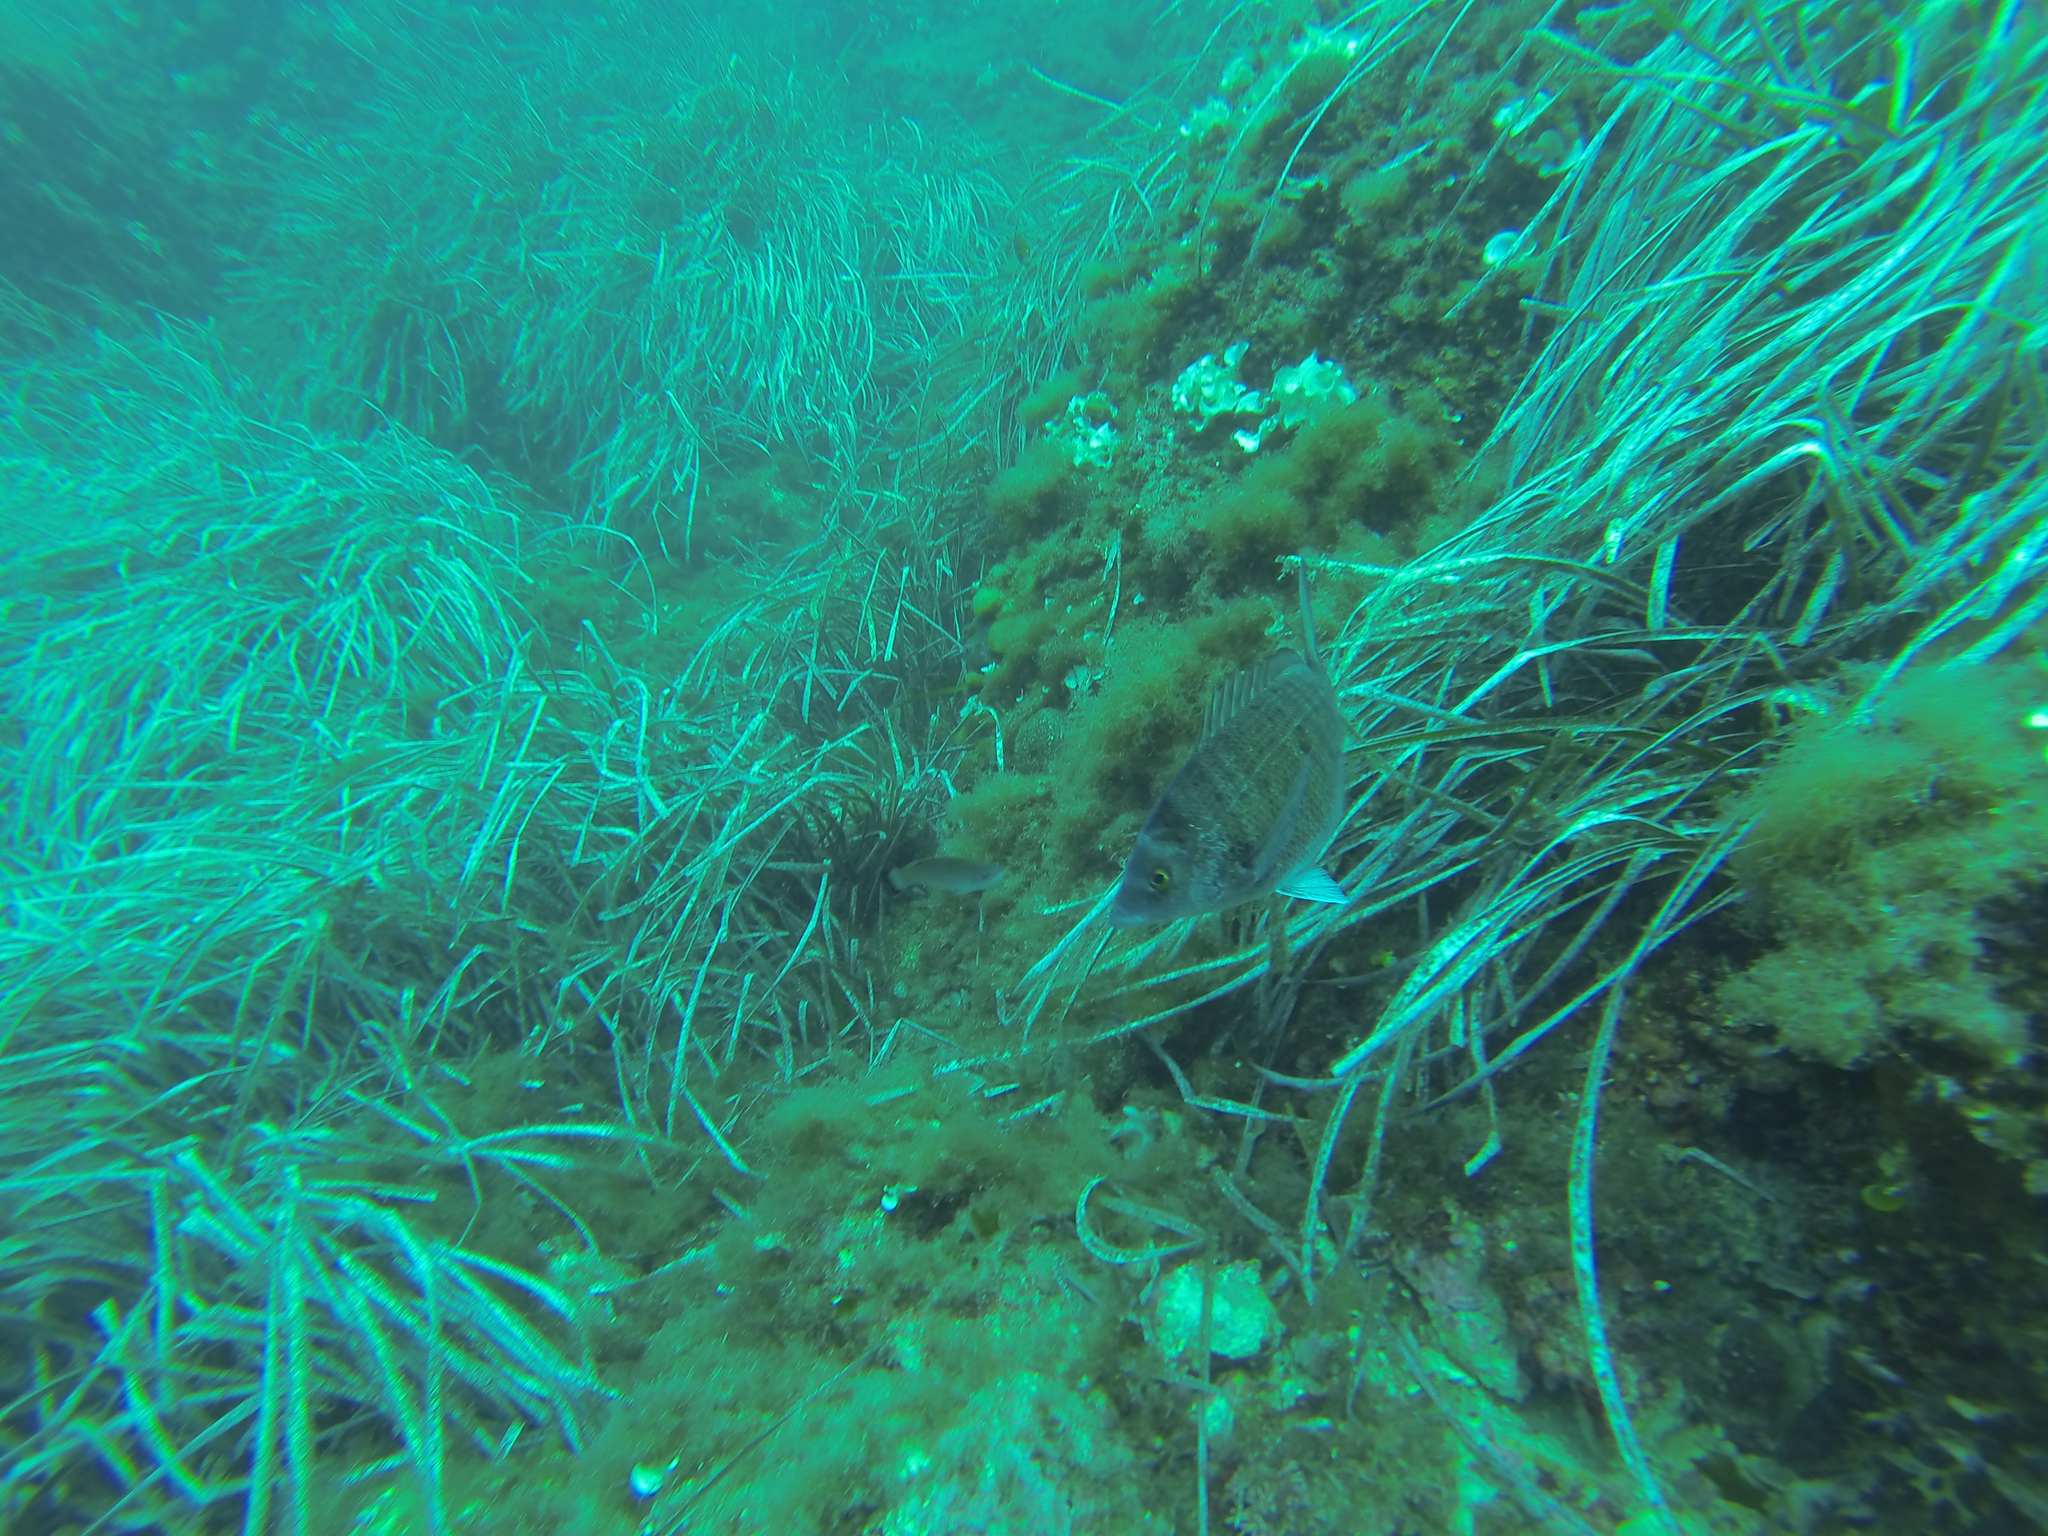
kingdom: Animalia
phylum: Chordata
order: Perciformes
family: Sparidae
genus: Diplodus
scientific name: Diplodus puntazzo
